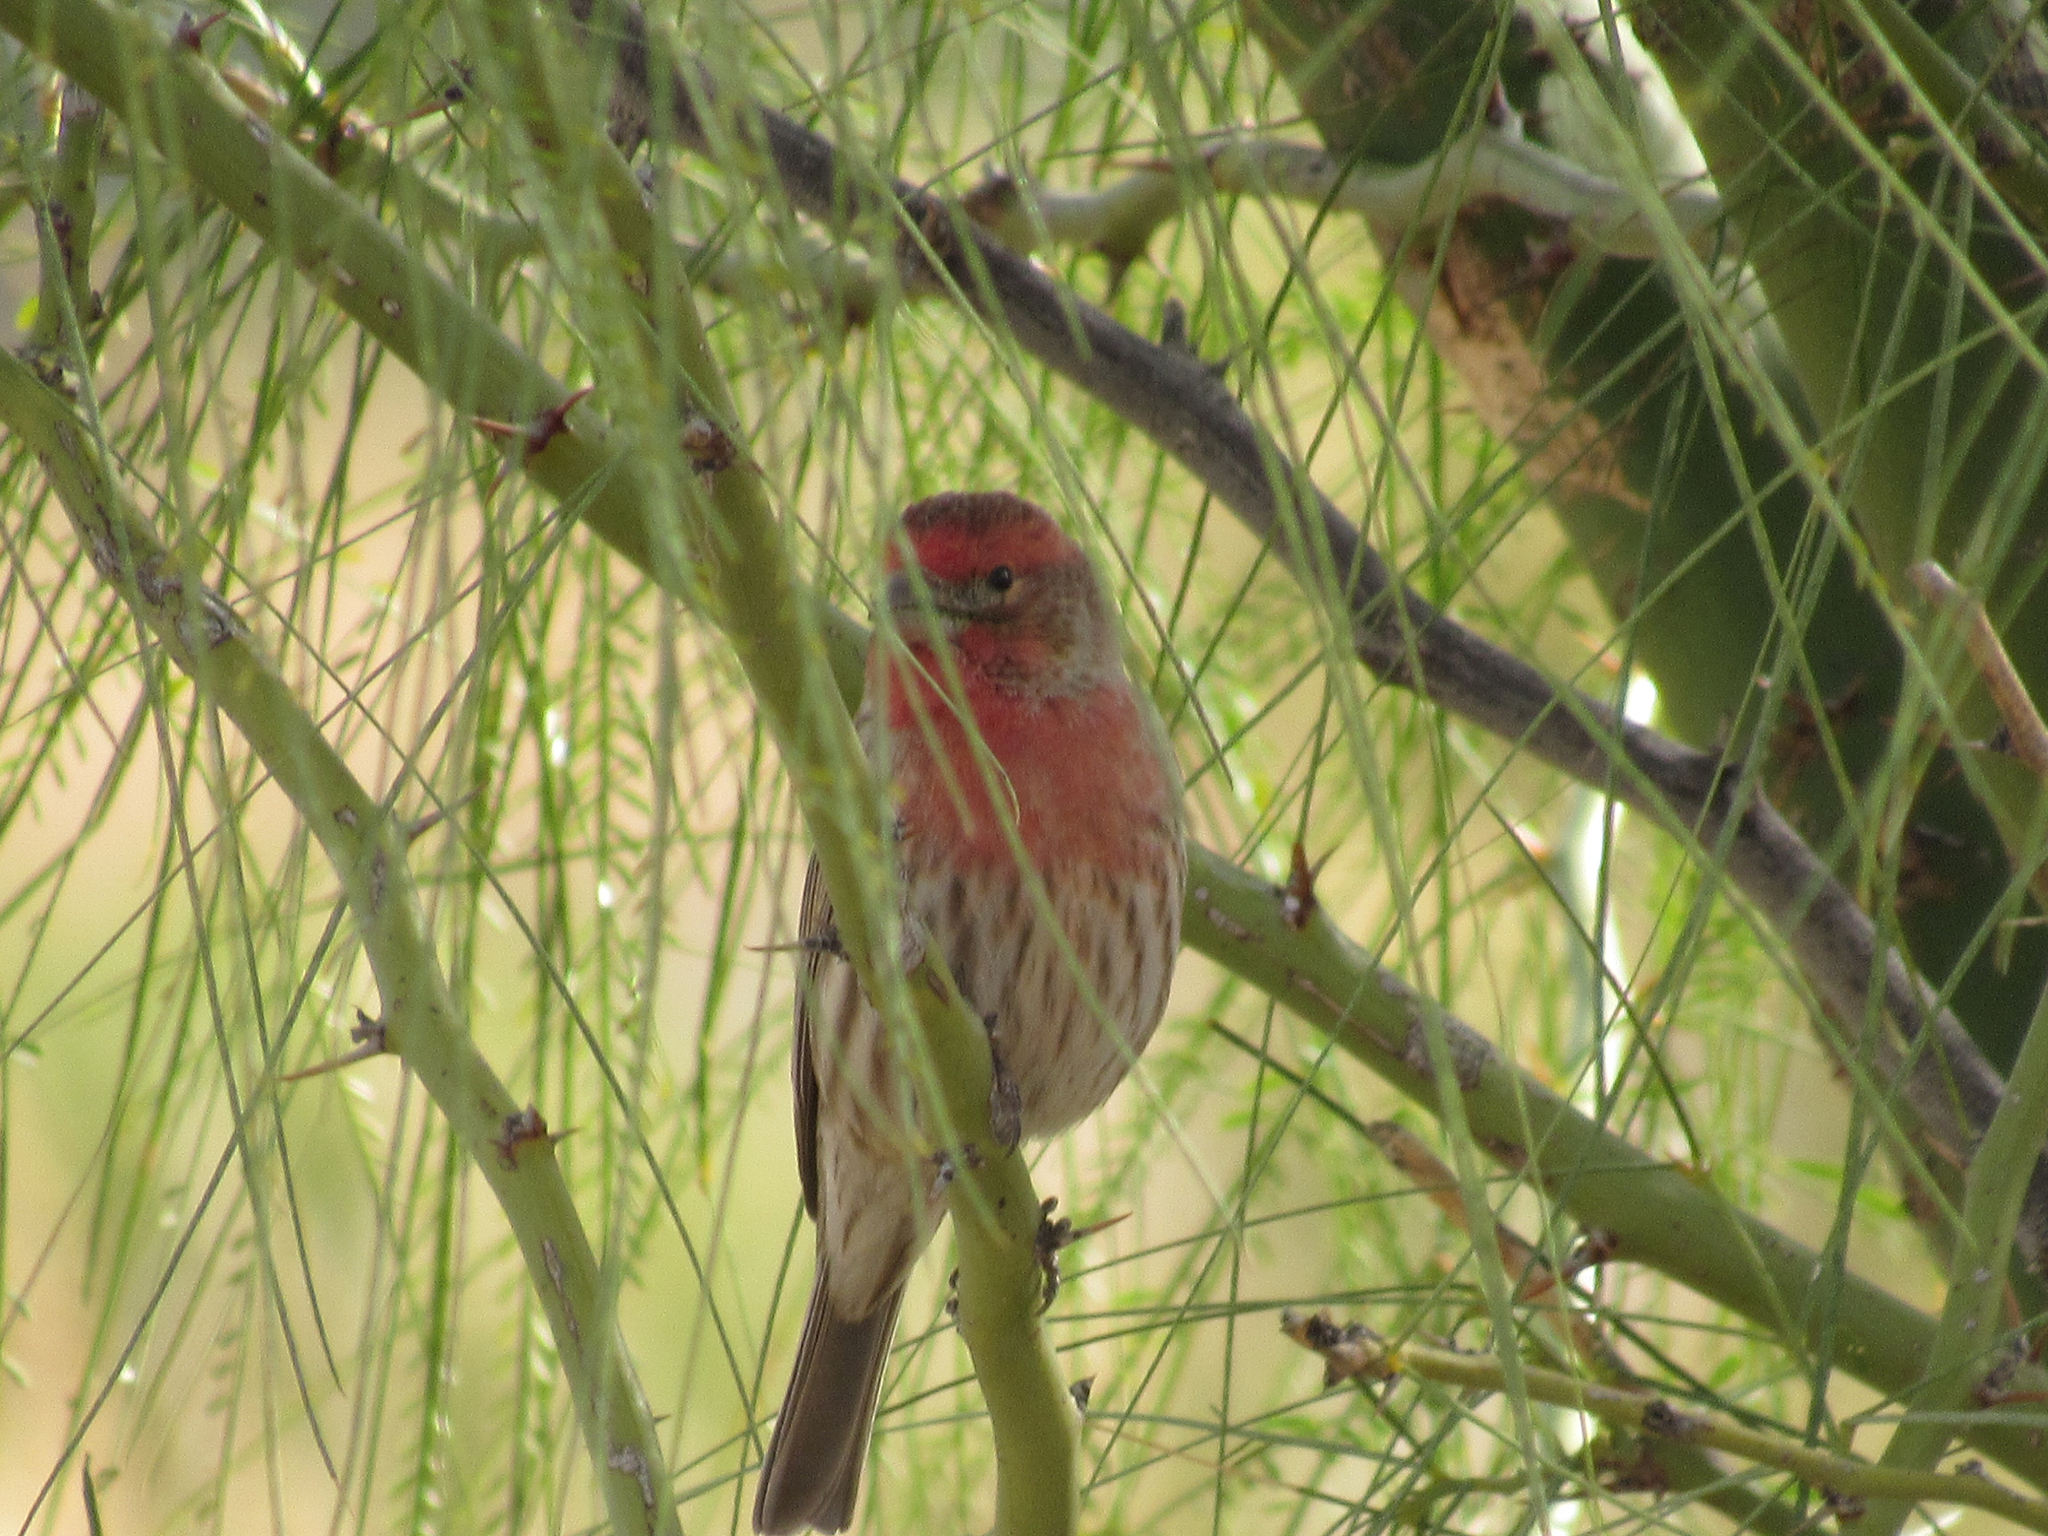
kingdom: Animalia
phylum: Chordata
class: Aves
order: Passeriformes
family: Fringillidae
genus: Haemorhous
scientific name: Haemorhous mexicanus
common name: House finch
